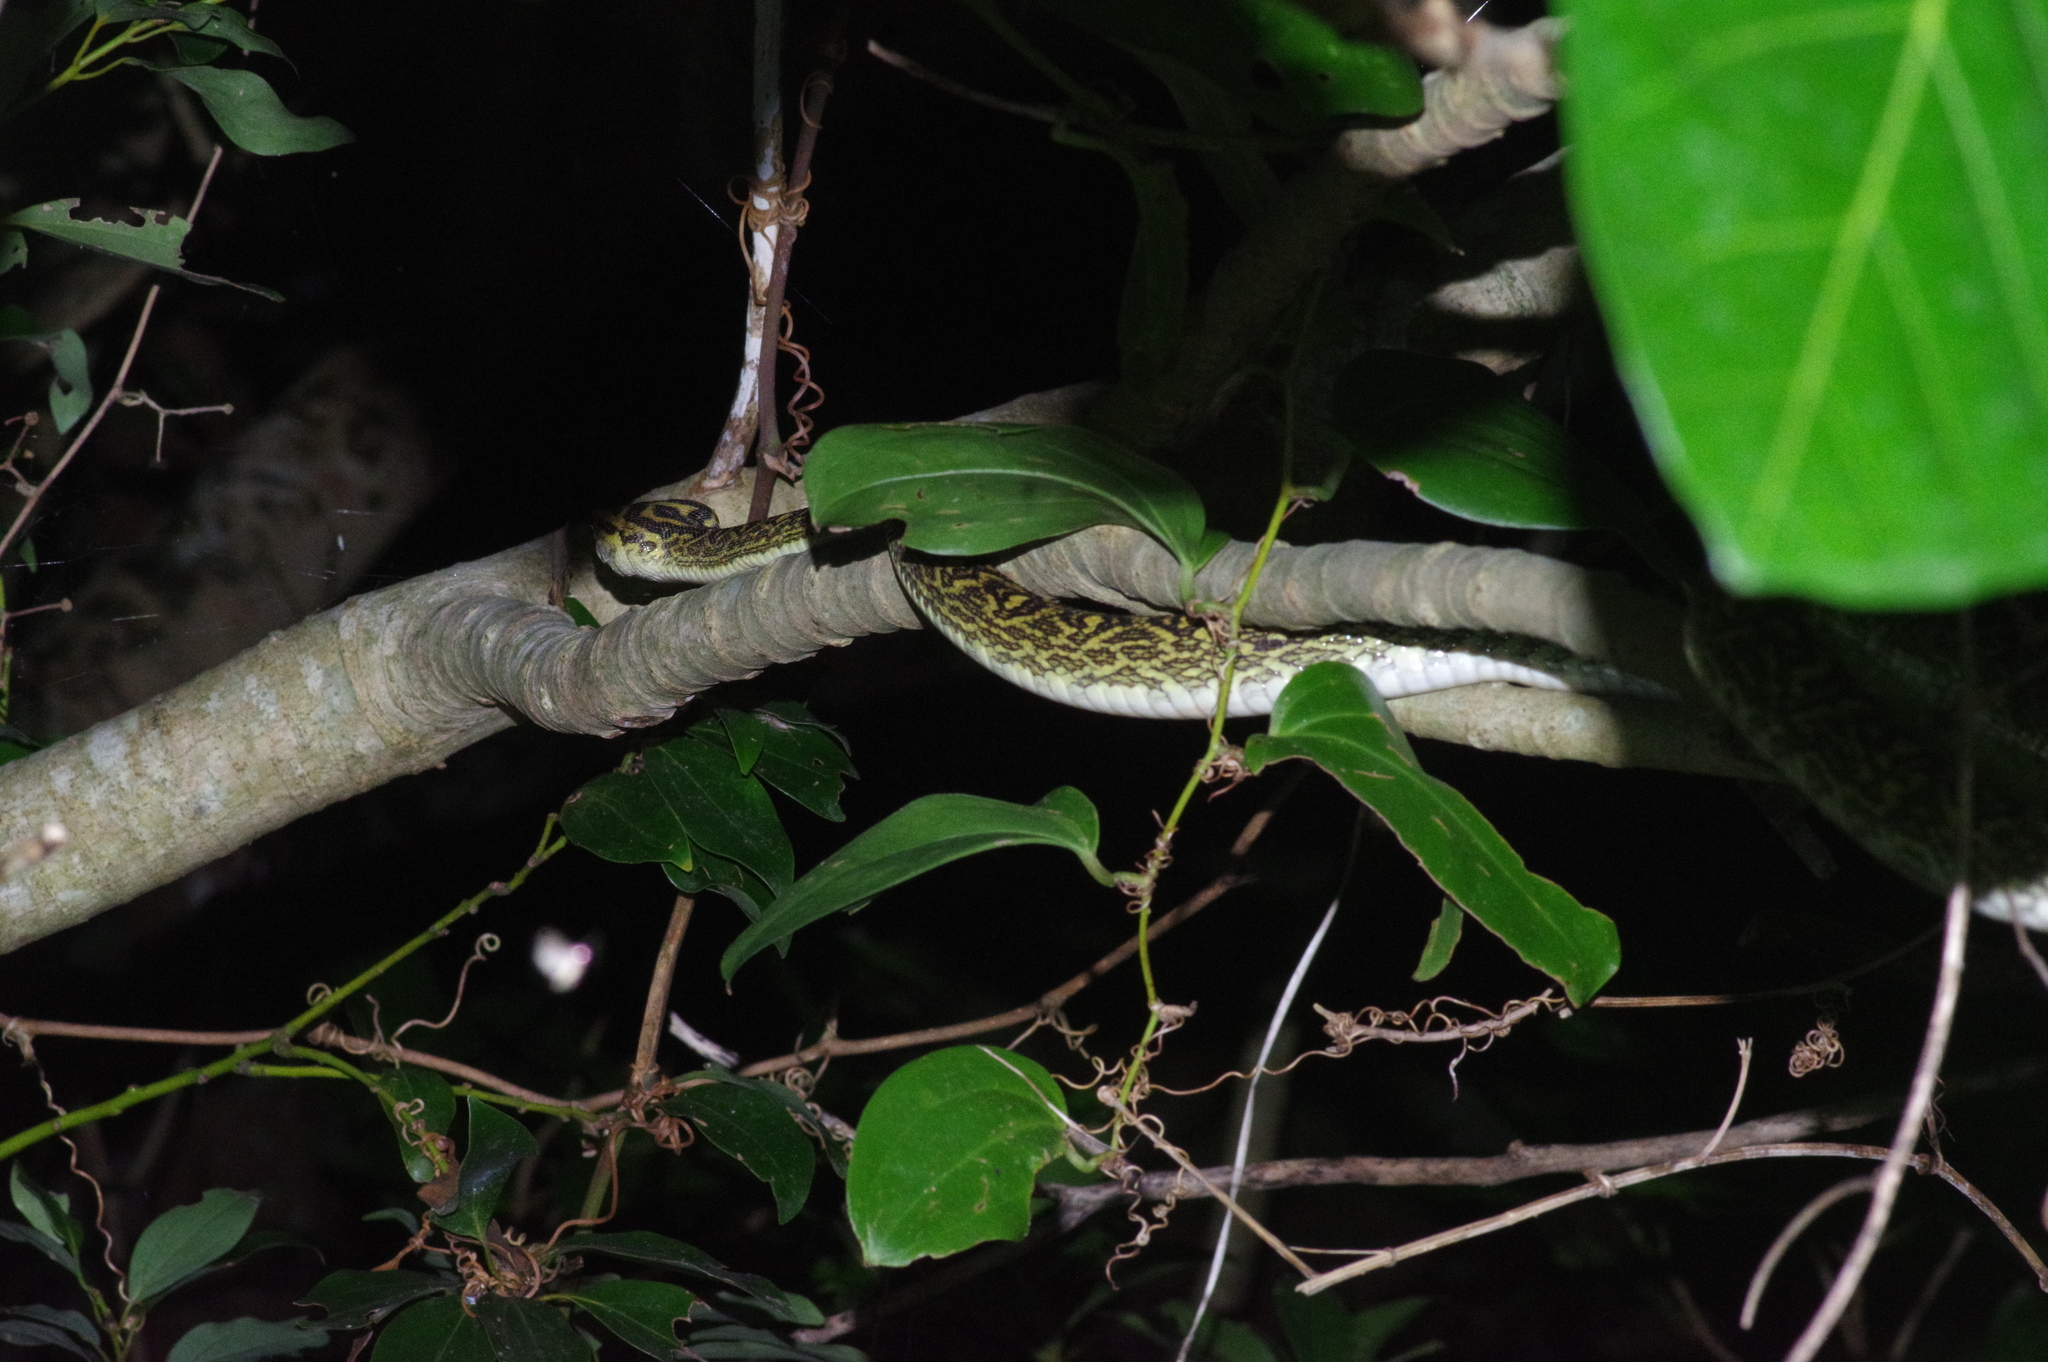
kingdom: Animalia
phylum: Chordata
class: Squamata
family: Viperidae
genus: Protobothrops
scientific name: Protobothrops flavoviridis
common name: Habu
